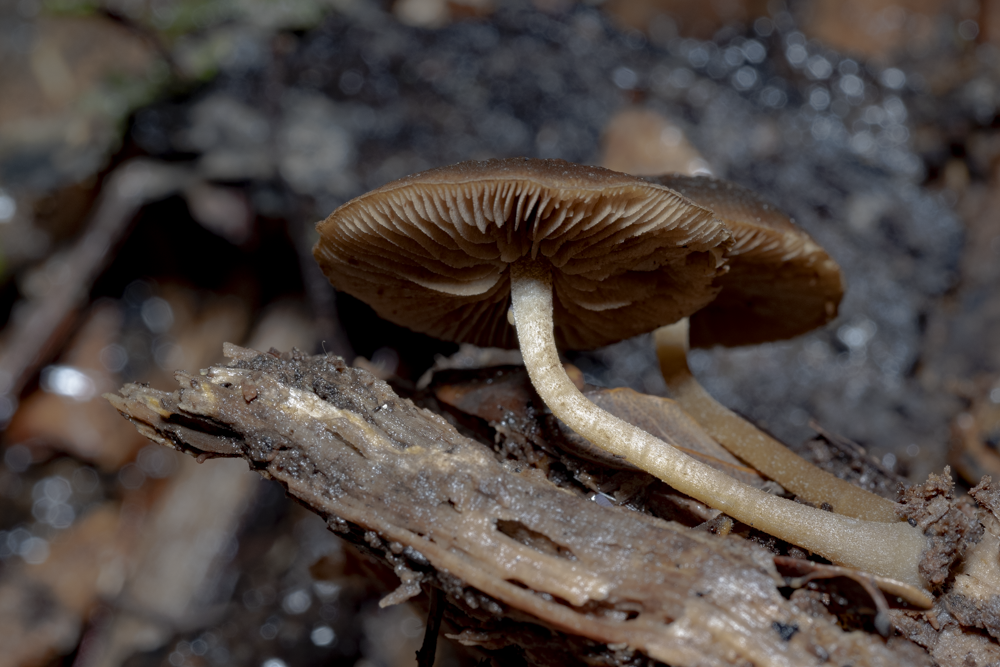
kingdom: Fungi
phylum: Basidiomycota
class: Agaricomycetes
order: Agaricales
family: Crepidotaceae
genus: Simocybe
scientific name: Simocybe phlebophora
